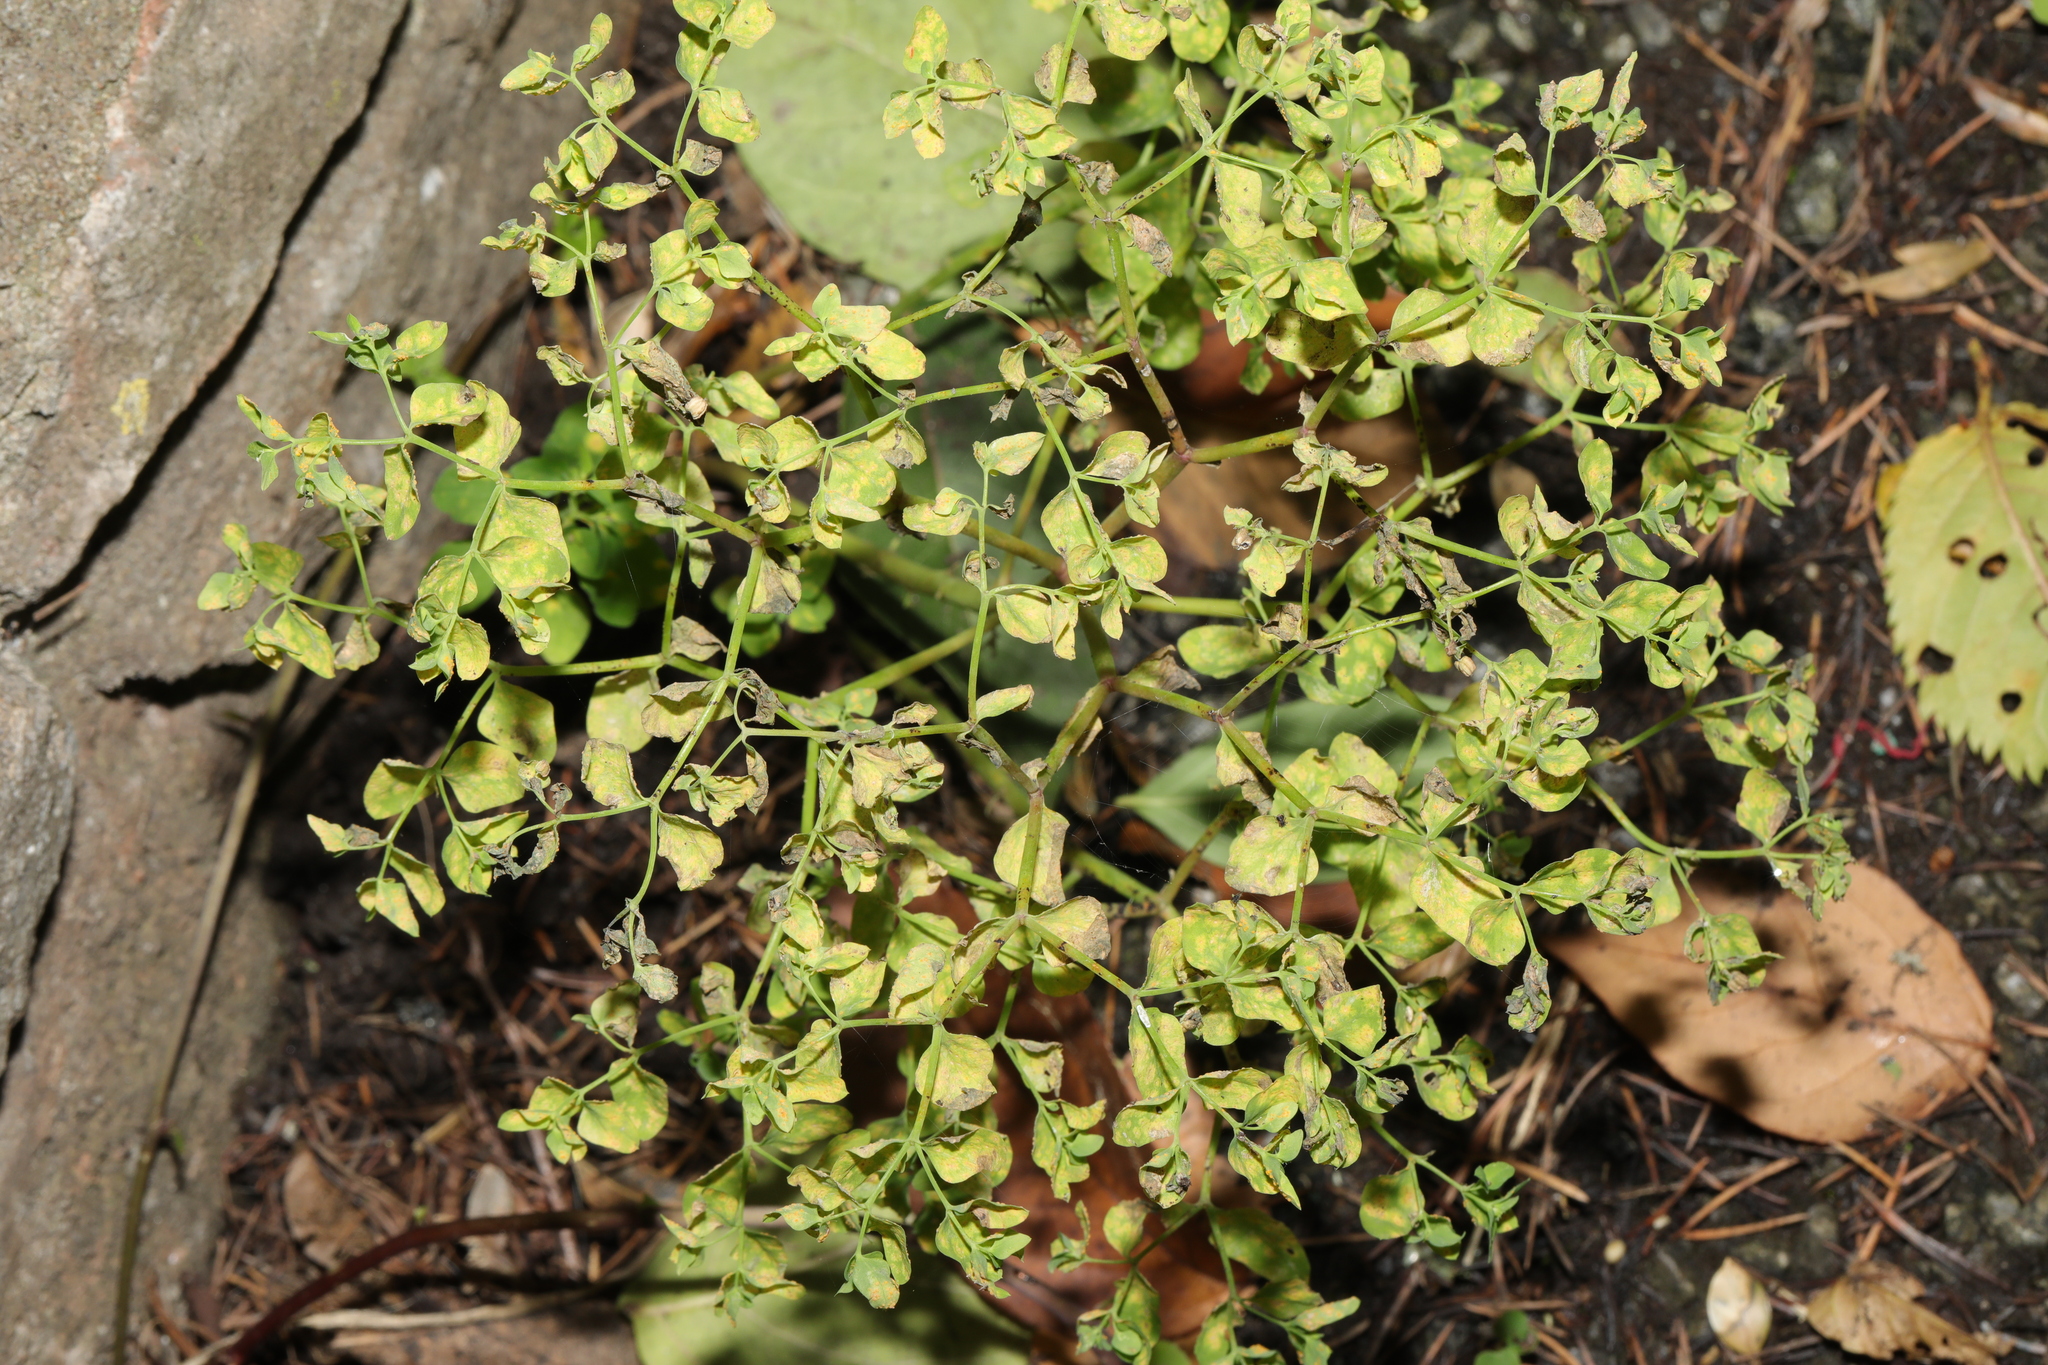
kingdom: Plantae
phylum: Tracheophyta
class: Magnoliopsida
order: Malpighiales
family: Euphorbiaceae
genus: Euphorbia
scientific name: Euphorbia peplus
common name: Petty spurge
